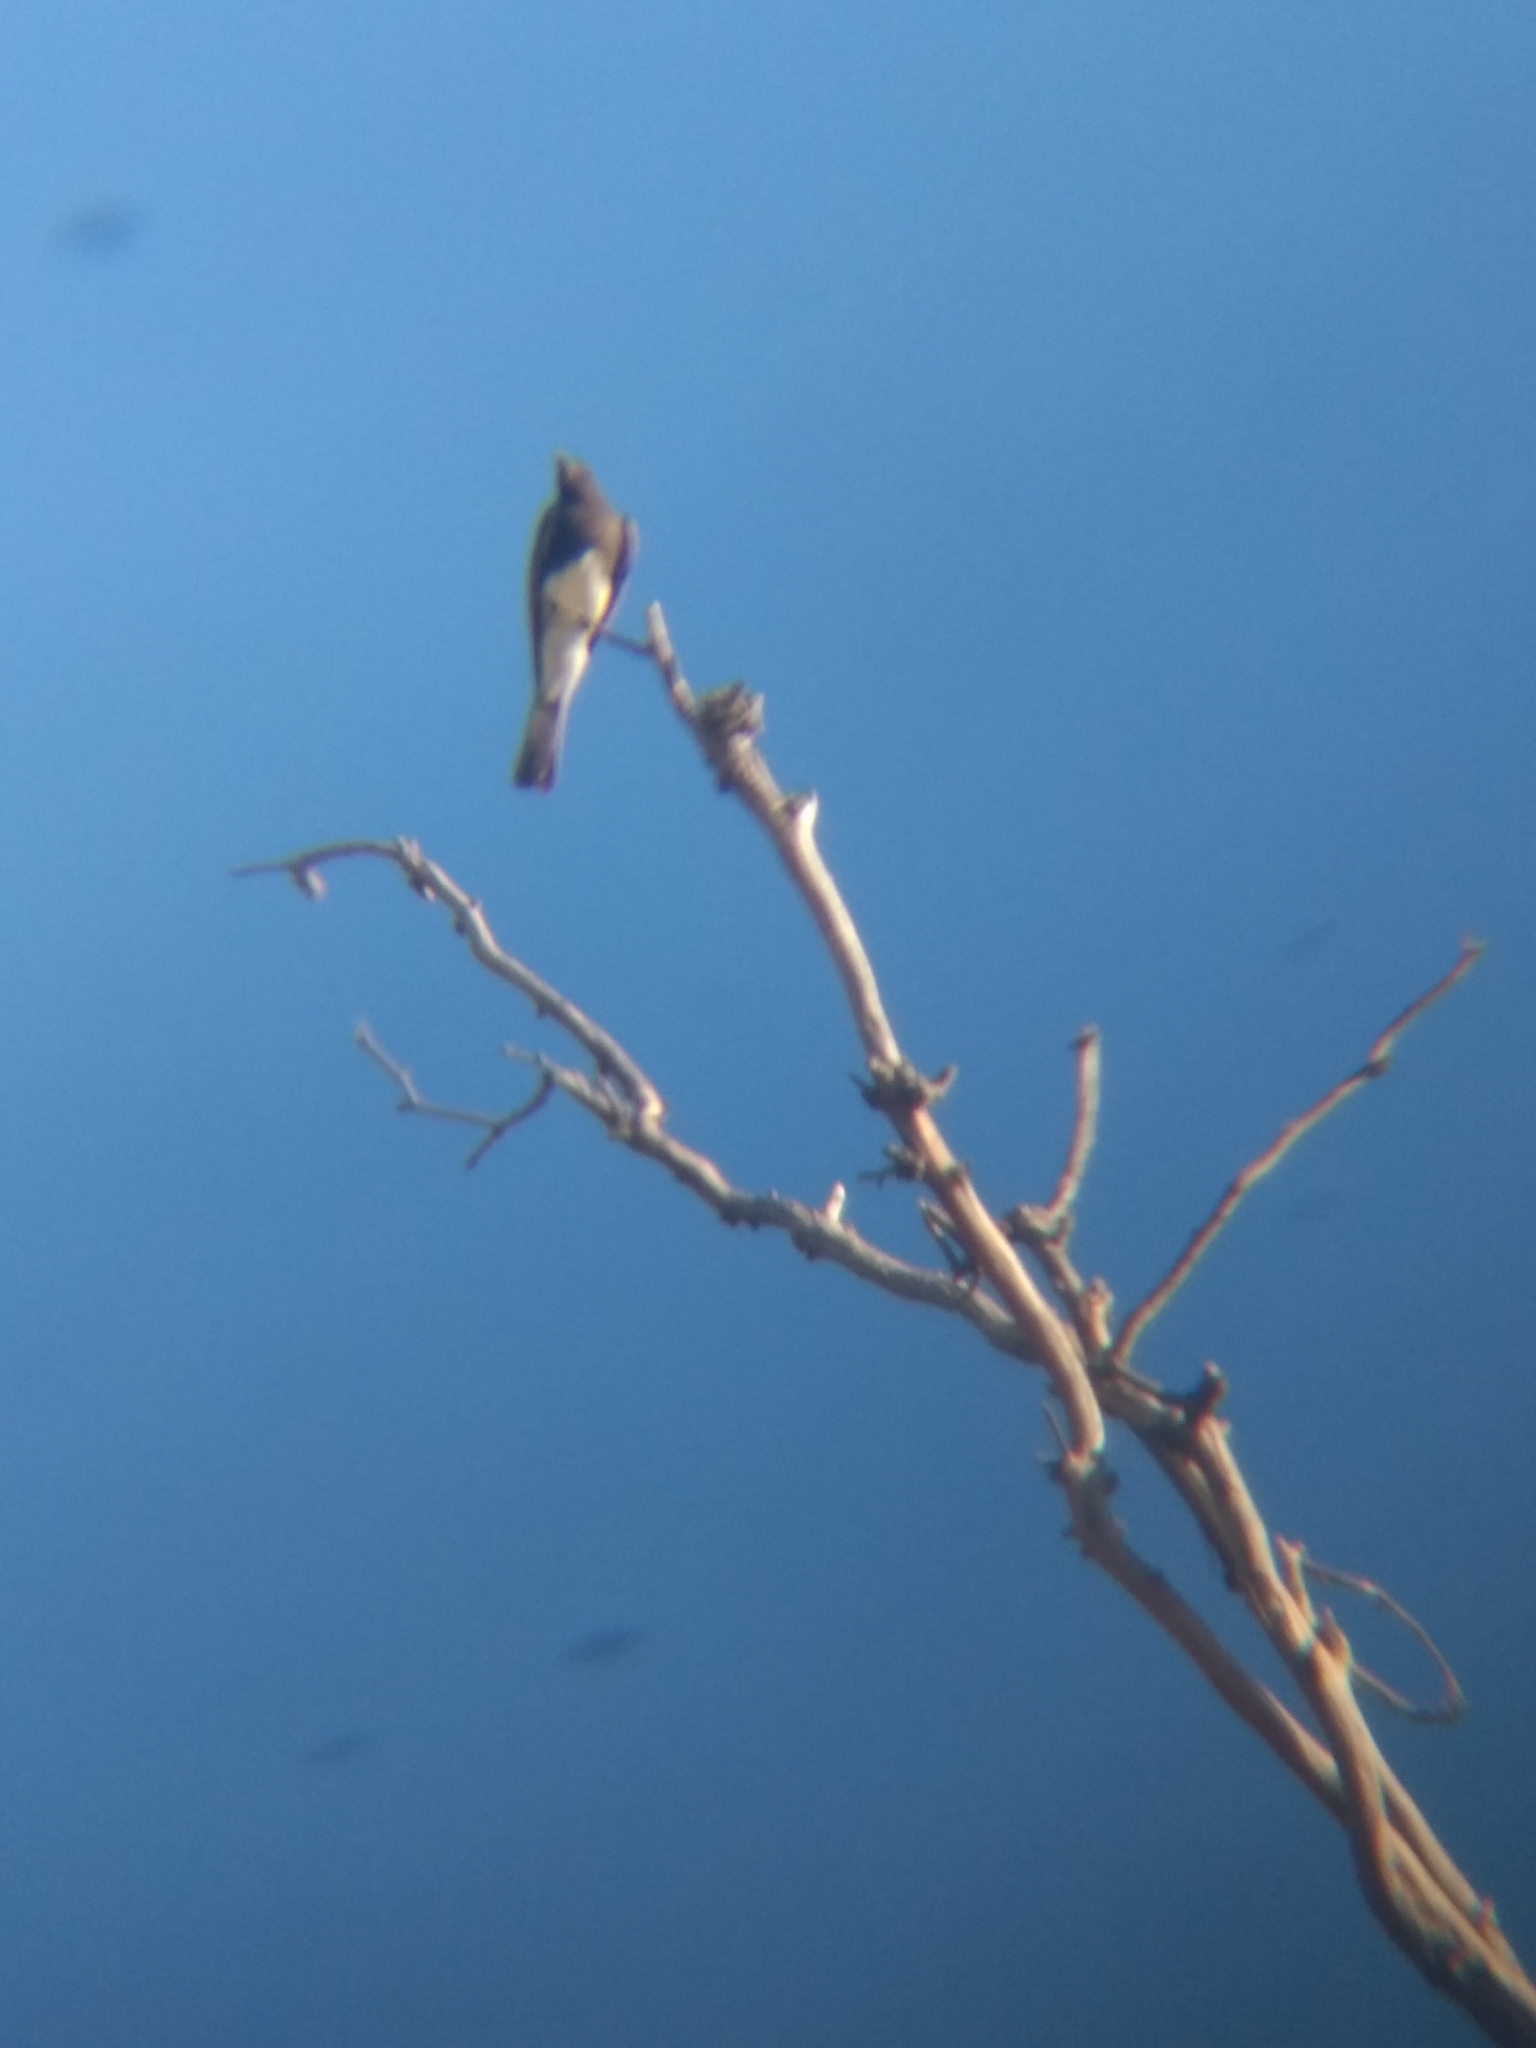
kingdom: Animalia
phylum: Chordata
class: Aves
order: Passeriformes
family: Tyrannidae
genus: Sayornis
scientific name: Sayornis nigricans
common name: Black phoebe
